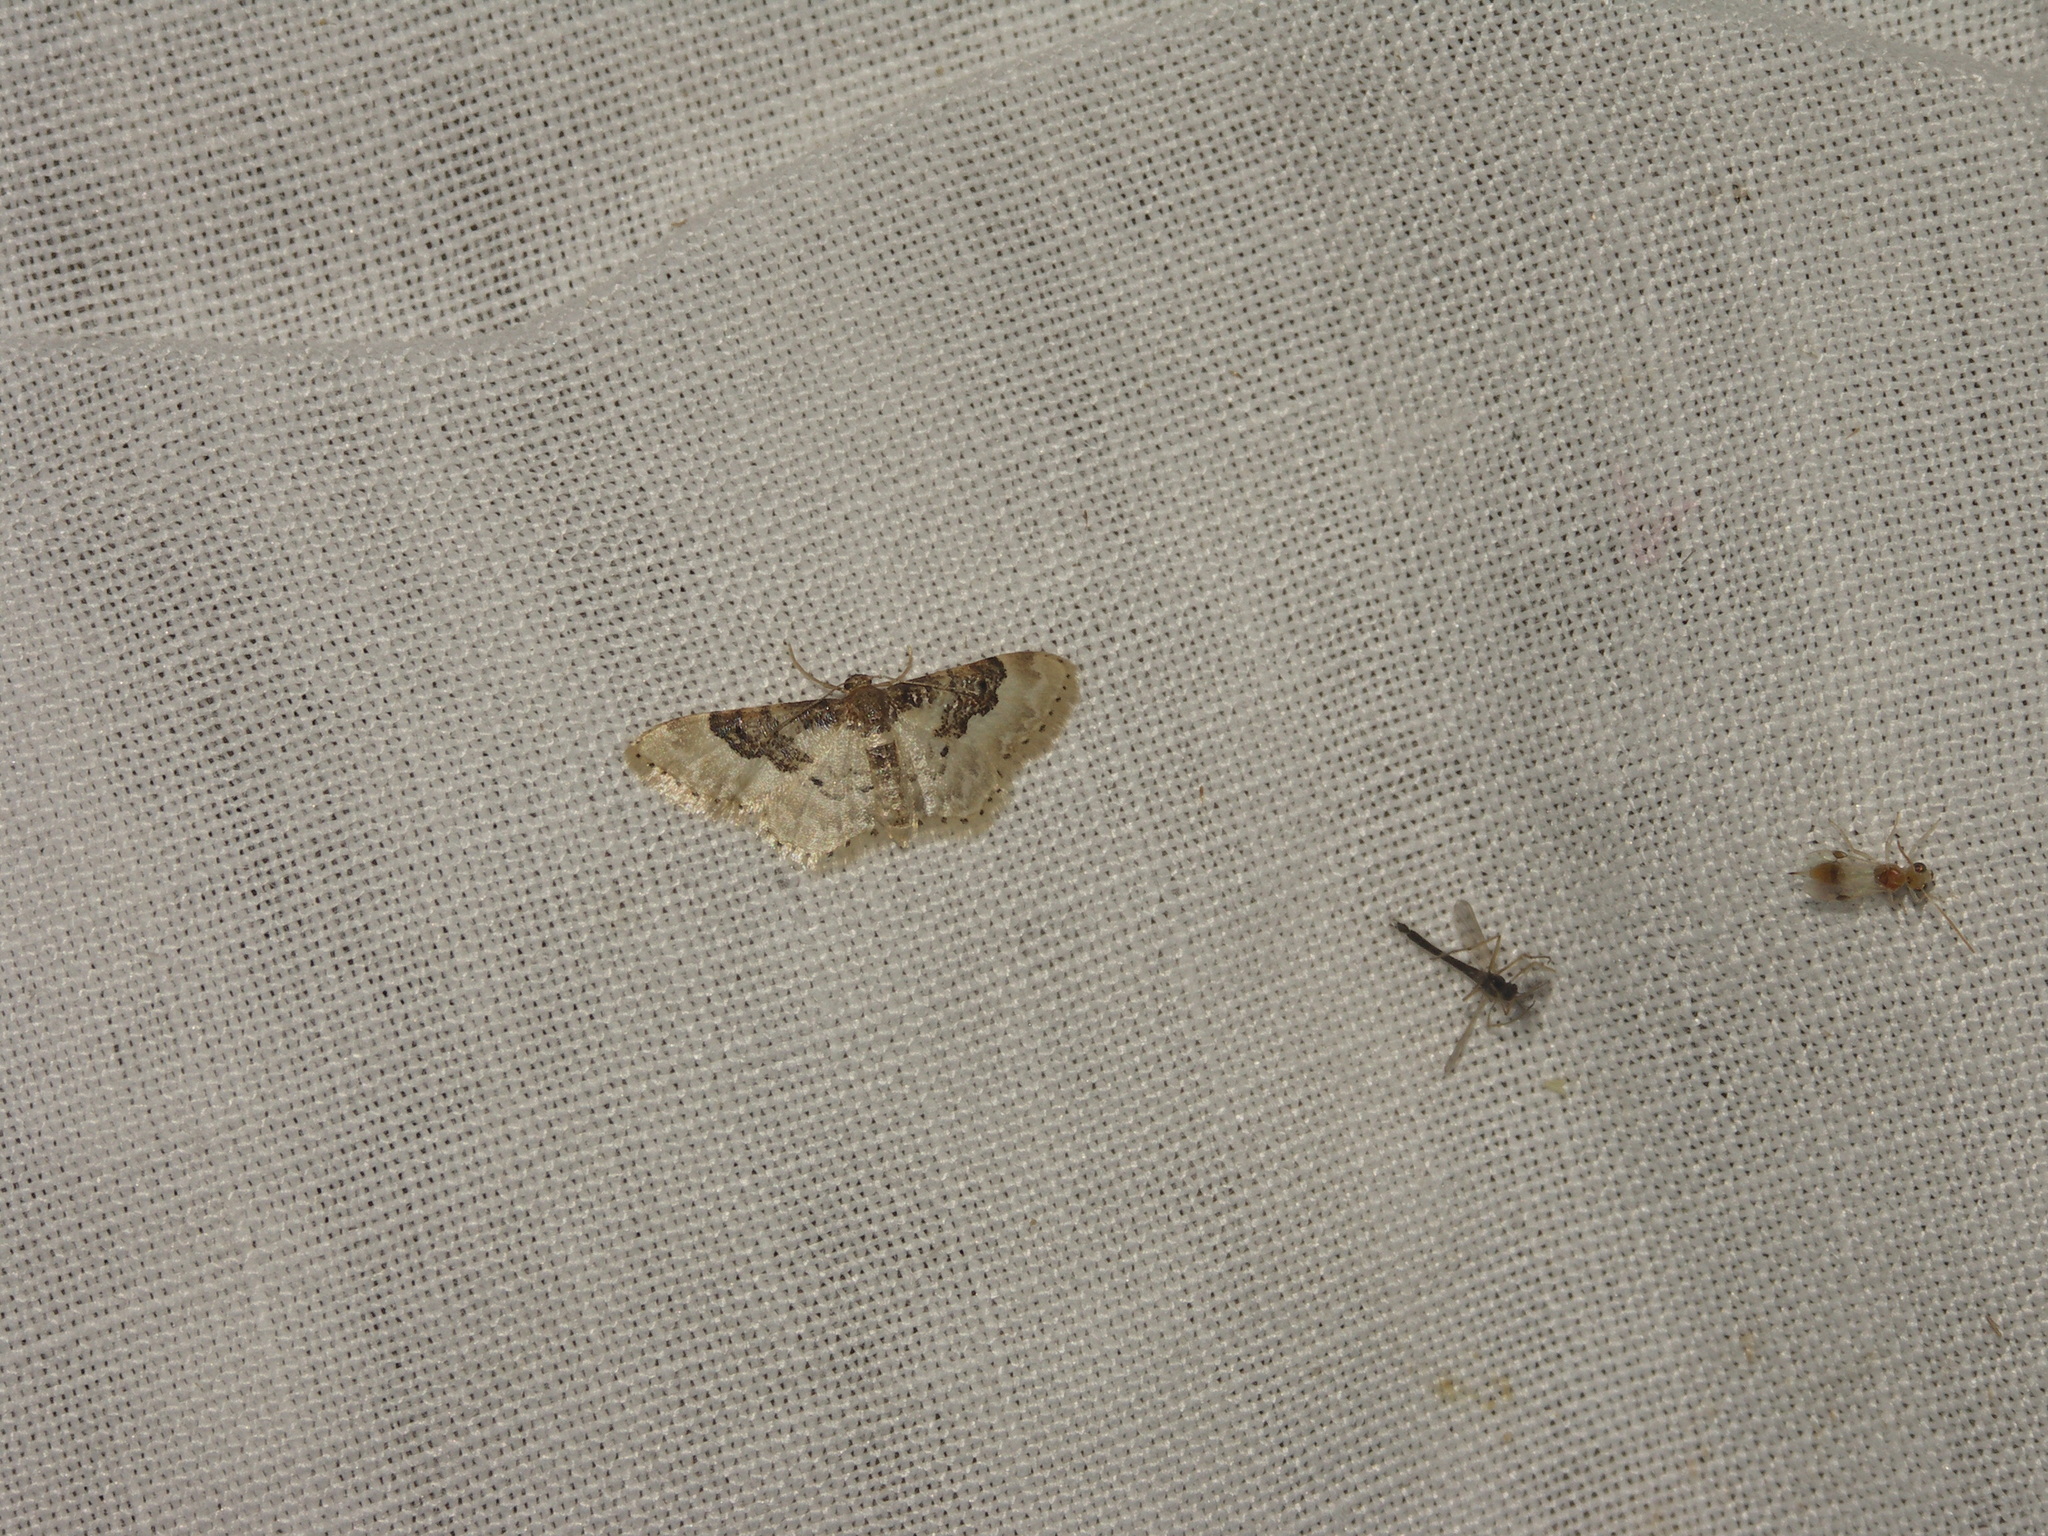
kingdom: Animalia
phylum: Arthropoda
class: Insecta
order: Lepidoptera
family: Geometridae
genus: Idaea
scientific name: Idaea rusticata
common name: Least carpet
